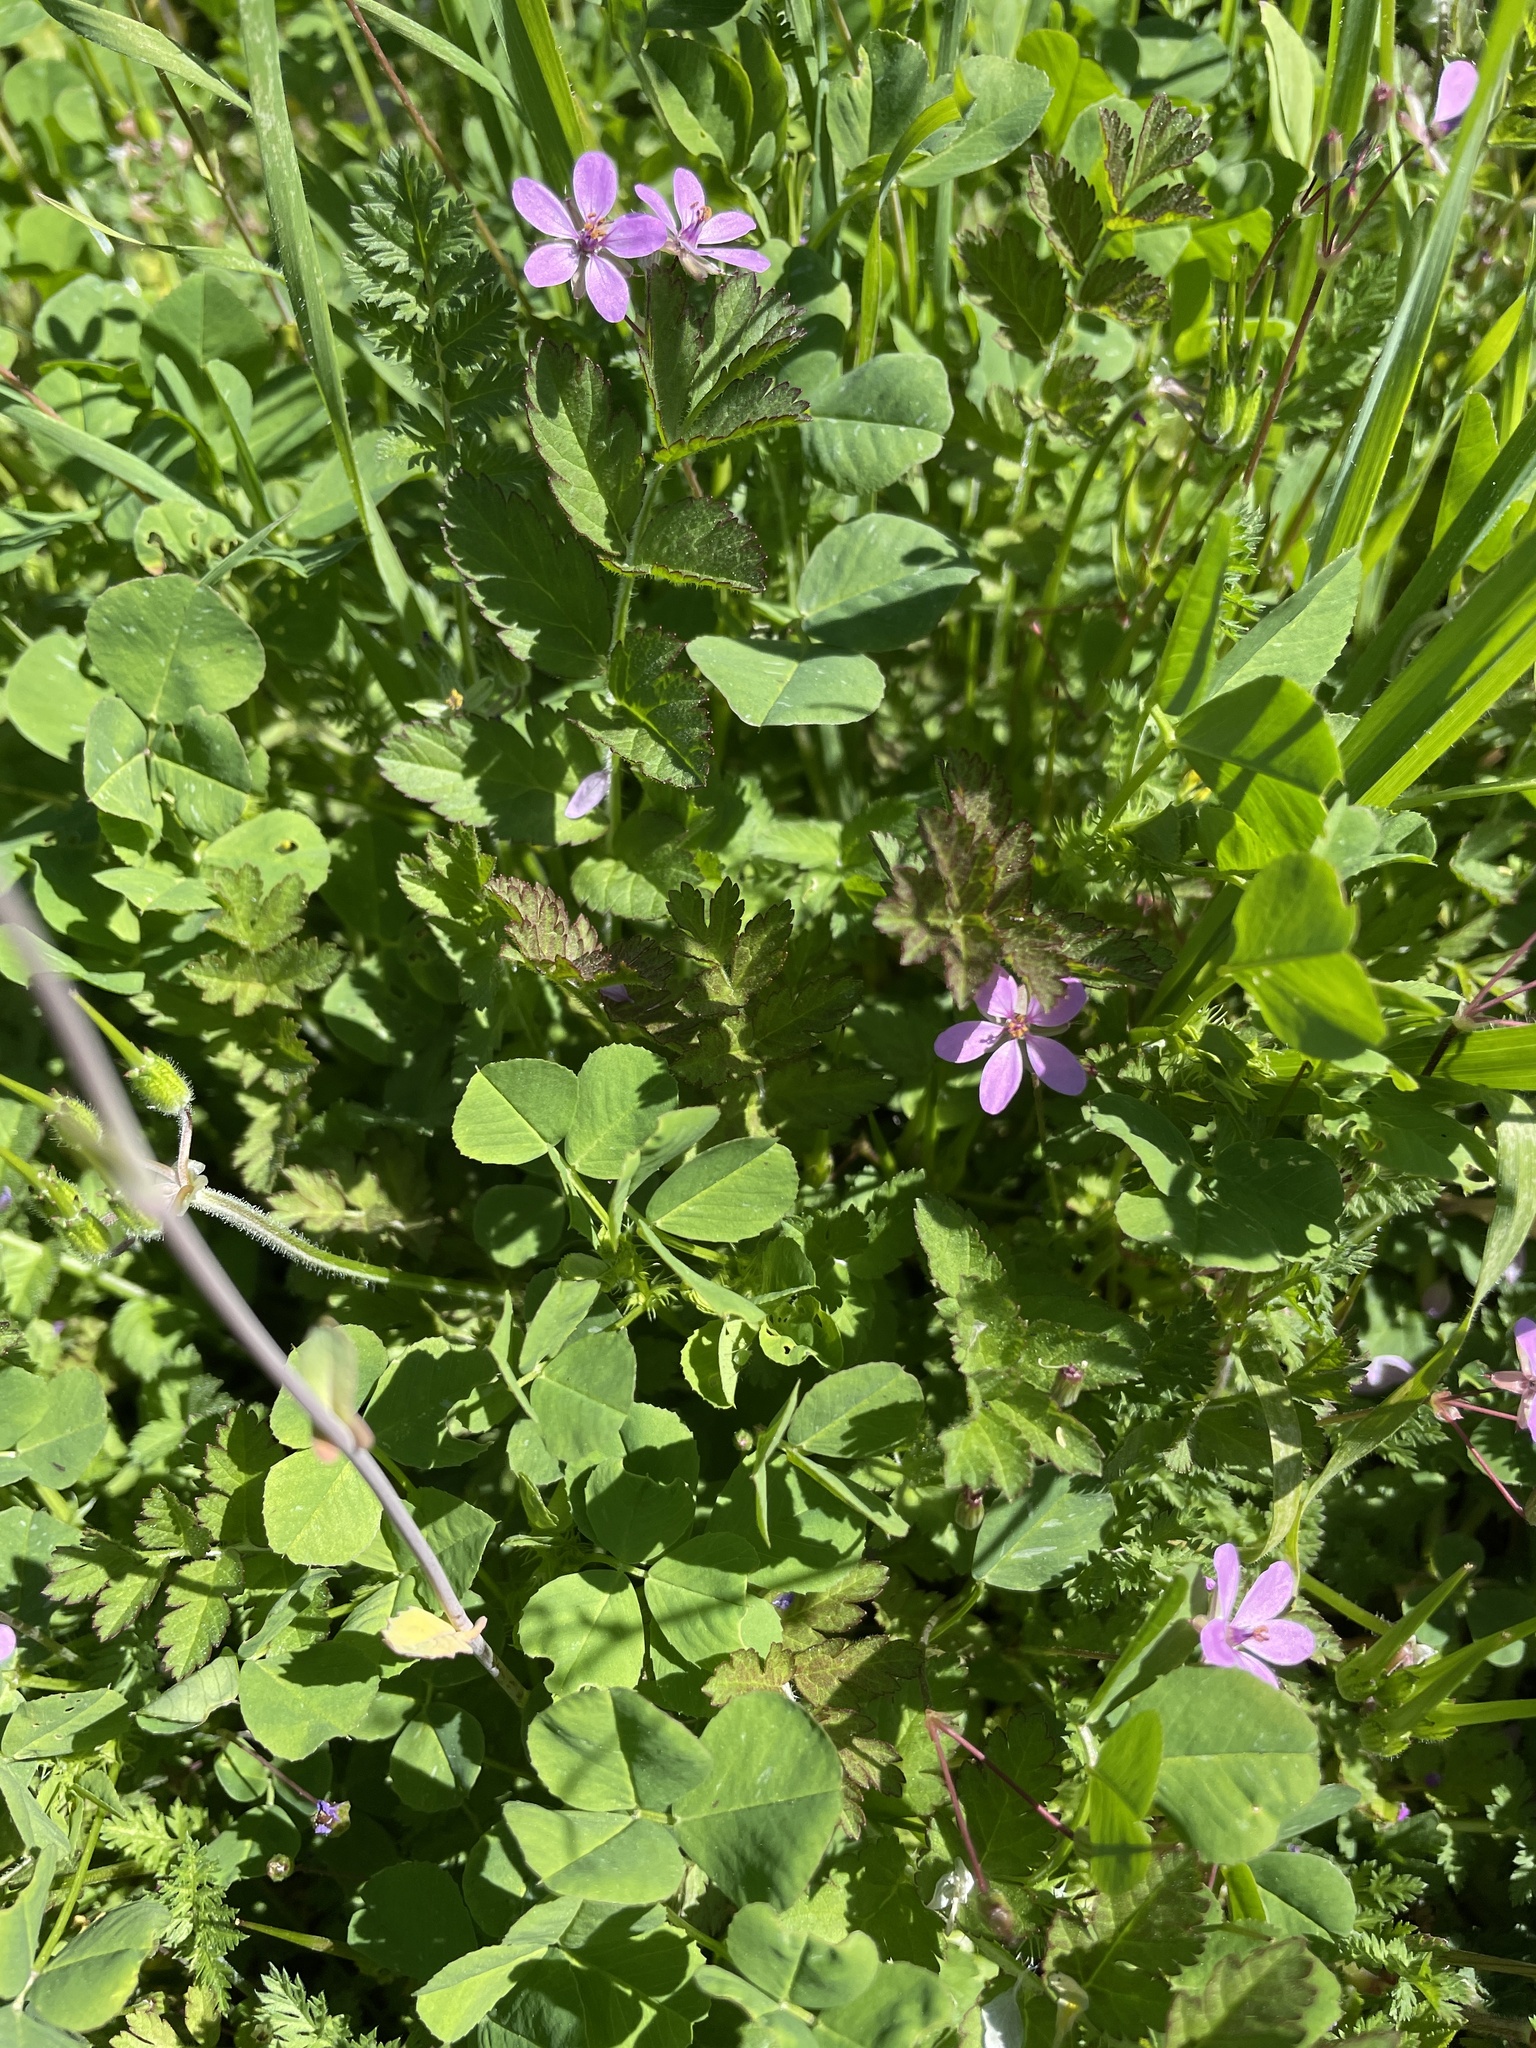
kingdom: Plantae
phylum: Tracheophyta
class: Magnoliopsida
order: Geraniales
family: Geraniaceae
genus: Erodium
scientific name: Erodium cicutarium
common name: Common stork's-bill
